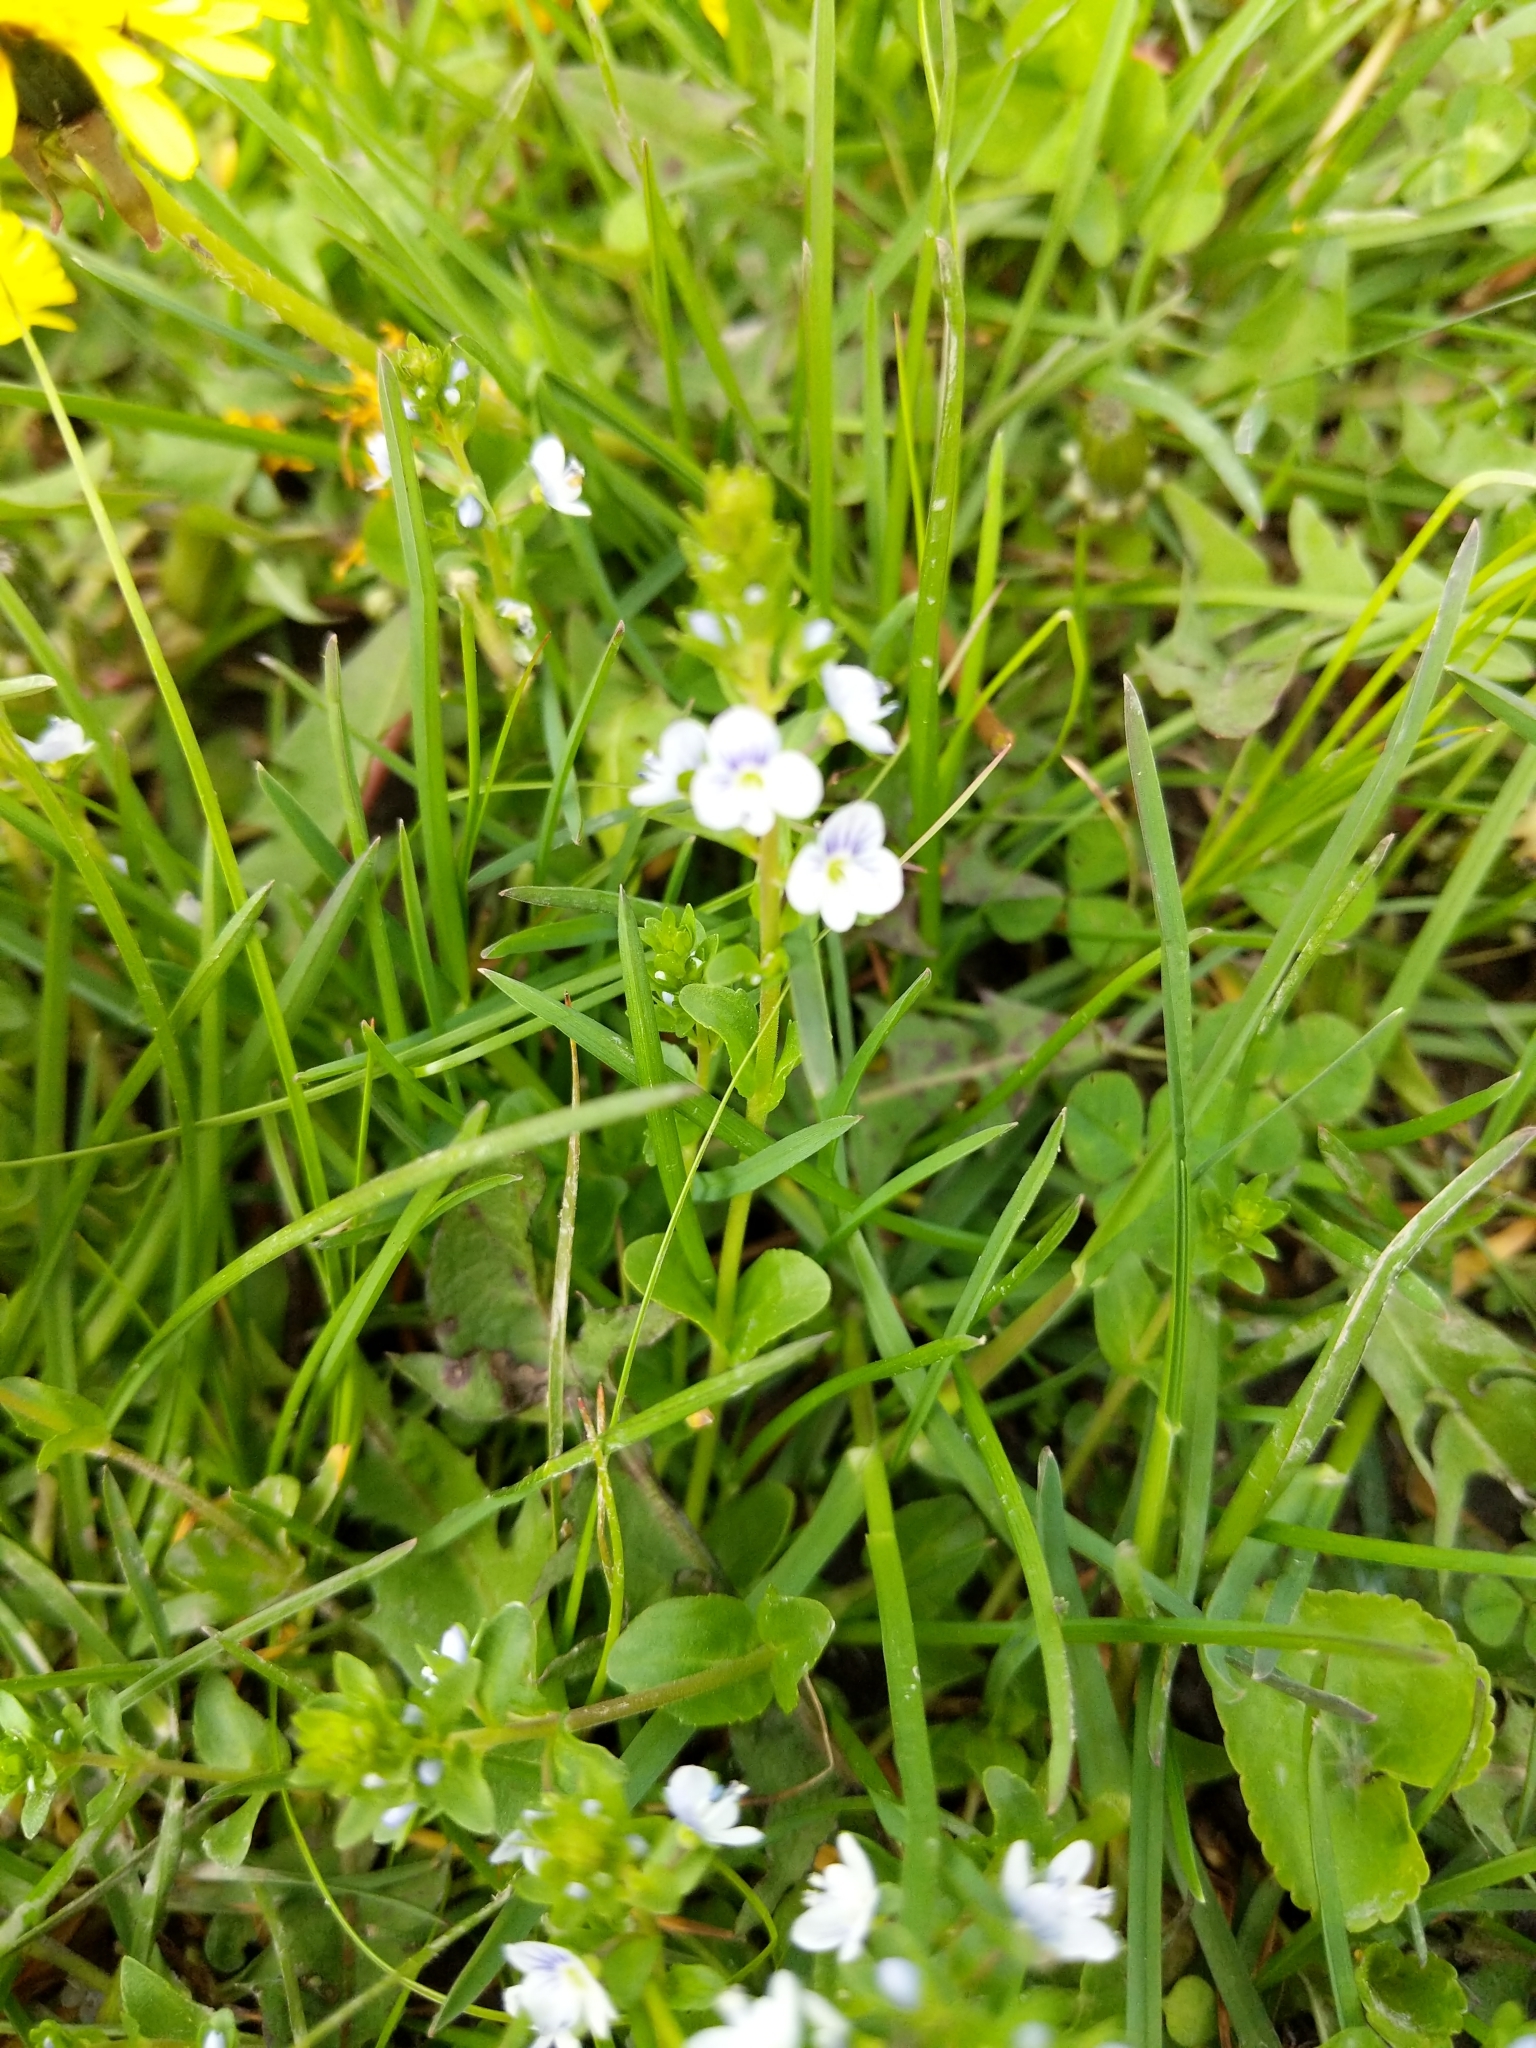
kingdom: Plantae
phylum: Tracheophyta
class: Magnoliopsida
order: Lamiales
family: Plantaginaceae
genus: Veronica
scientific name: Veronica serpyllifolia
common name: Thyme-leaved speedwell
